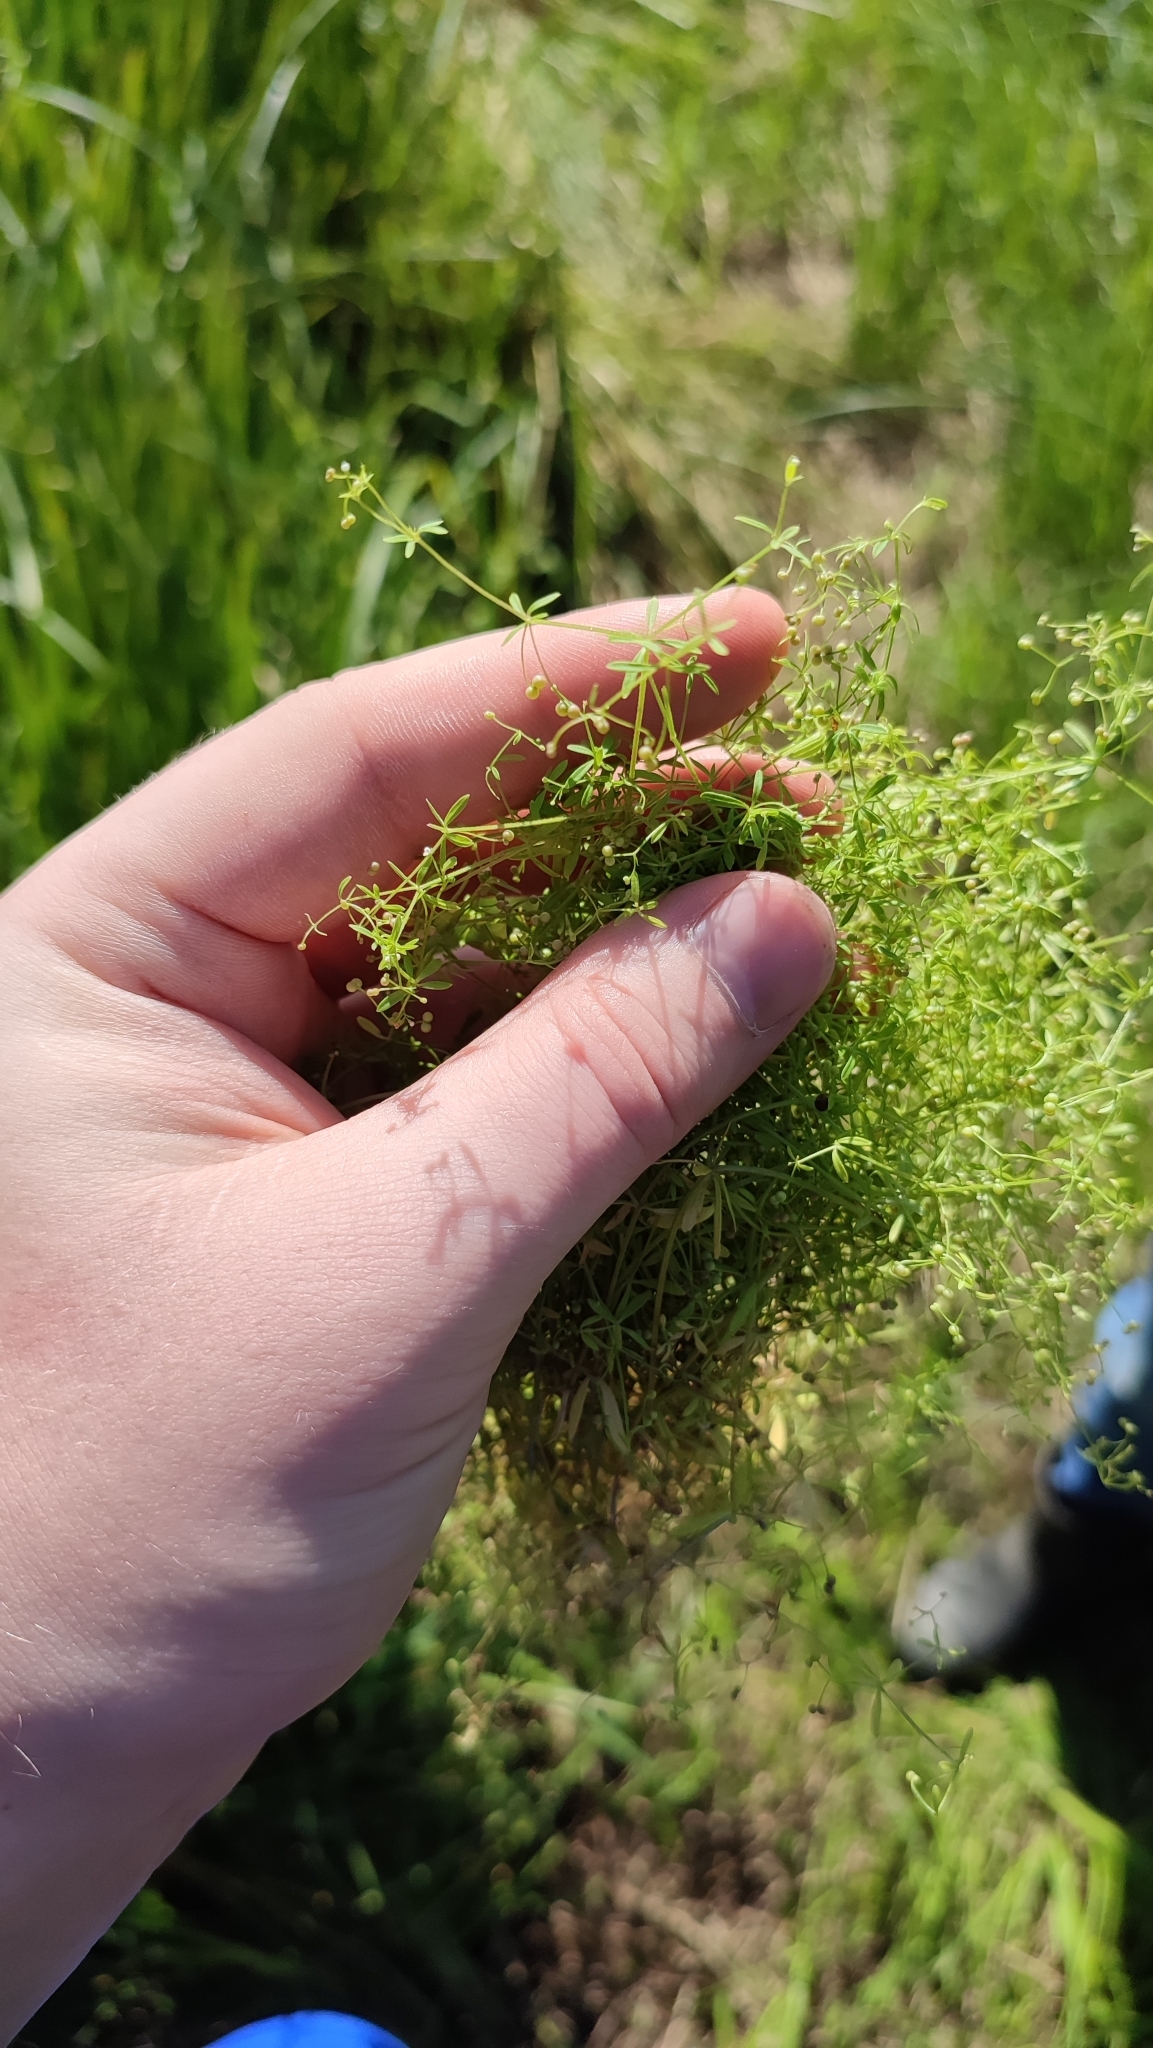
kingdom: Plantae
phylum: Tracheophyta
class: Magnoliopsida
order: Gentianales
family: Rubiaceae
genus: Galium
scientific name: Galium trifidum
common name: Small bedstraw
